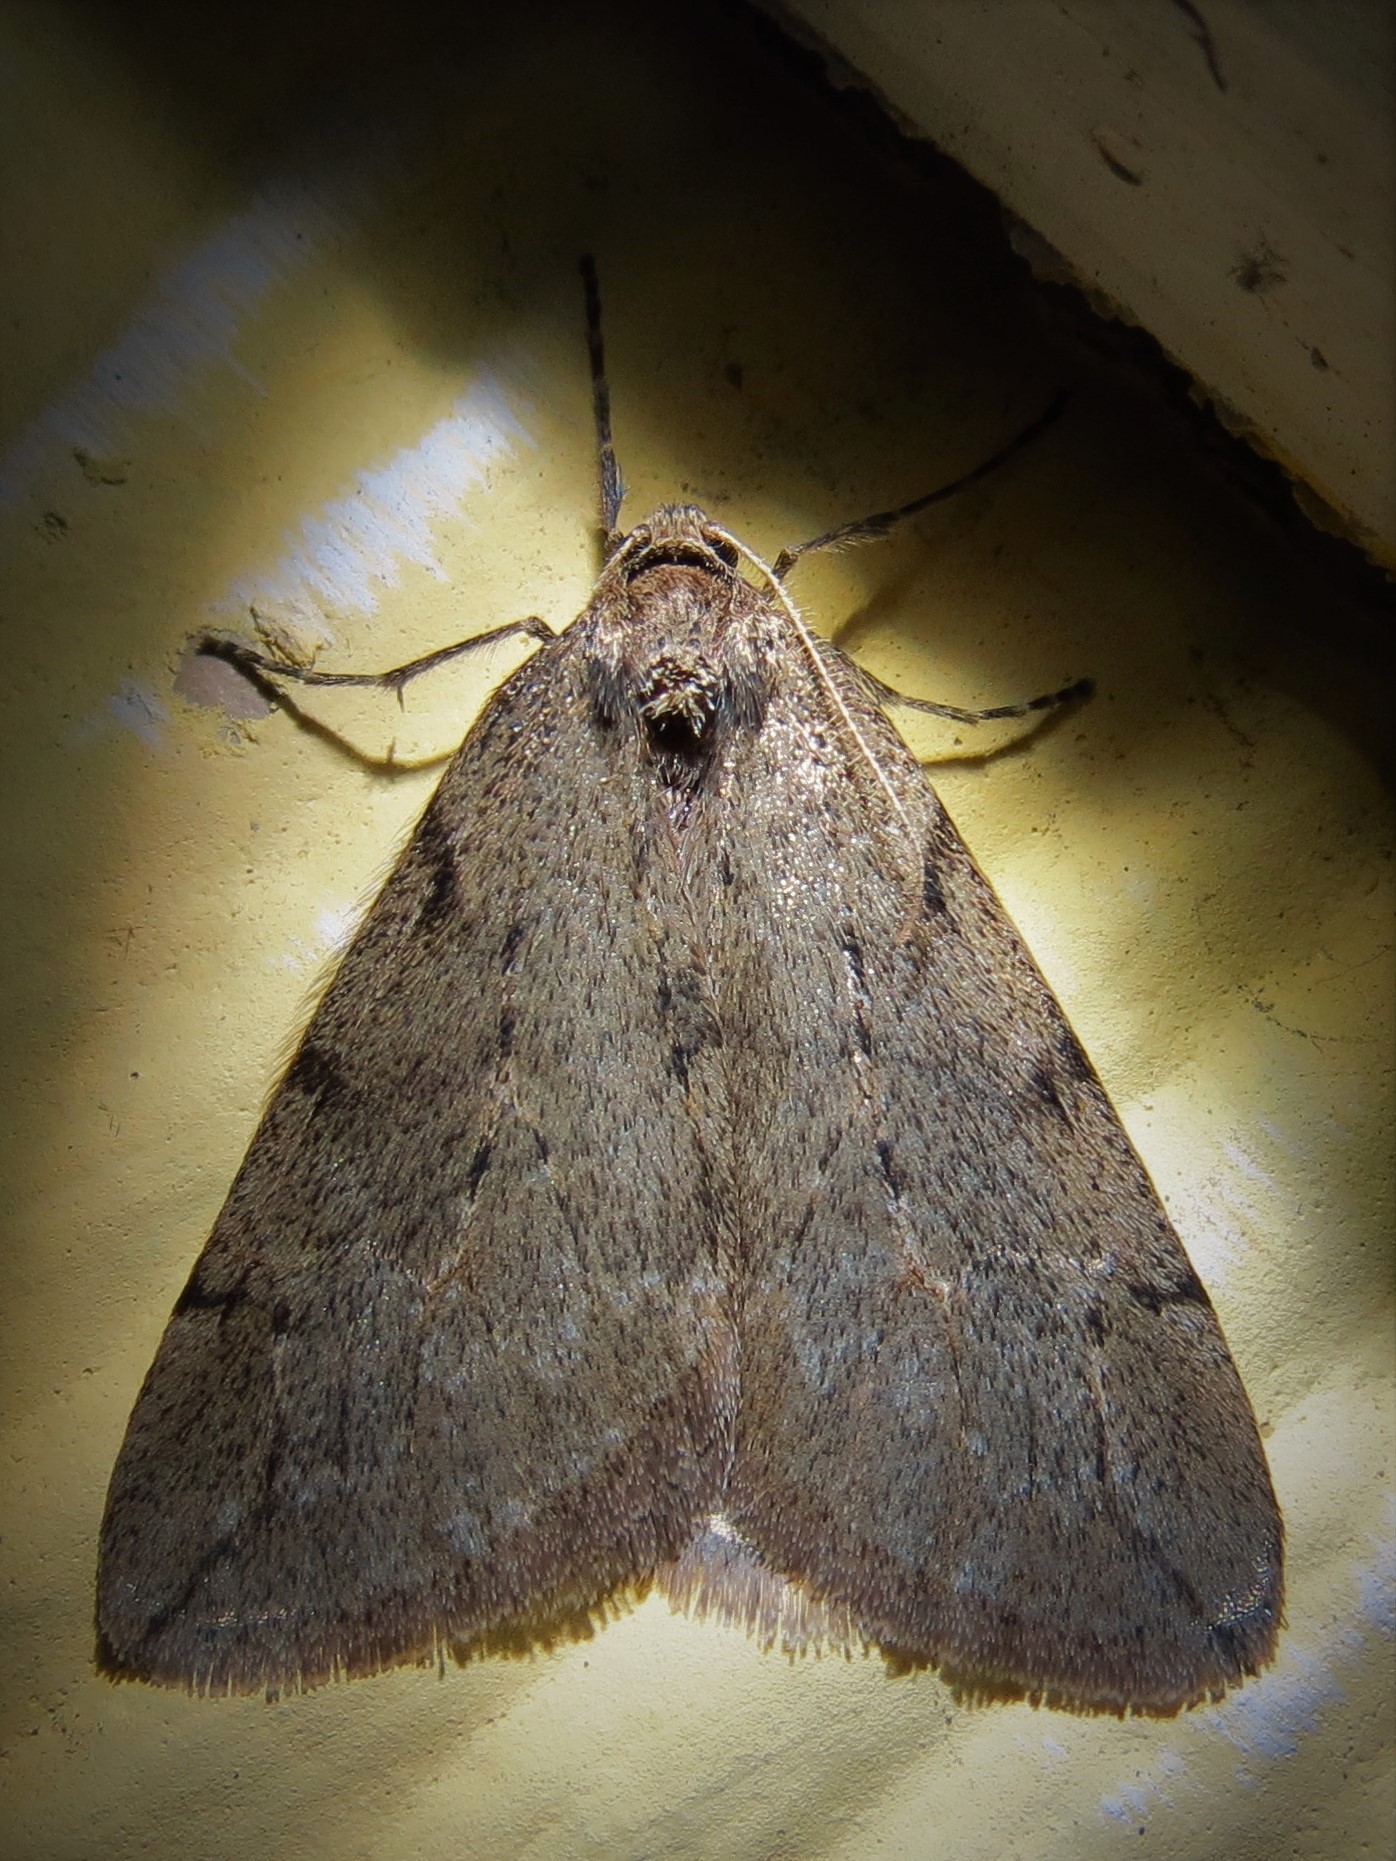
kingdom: Animalia
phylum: Arthropoda
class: Insecta
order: Lepidoptera
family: Geometridae
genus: Paleacrita
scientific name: Paleacrita vernata
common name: Spring cankerworm
